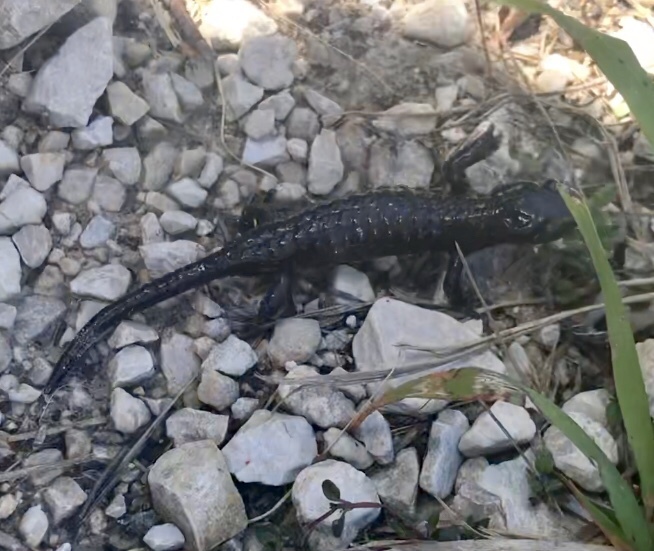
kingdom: Animalia
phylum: Chordata
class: Amphibia
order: Caudata
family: Salamandridae
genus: Salamandra
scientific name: Salamandra atra
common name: Alpine salamander
